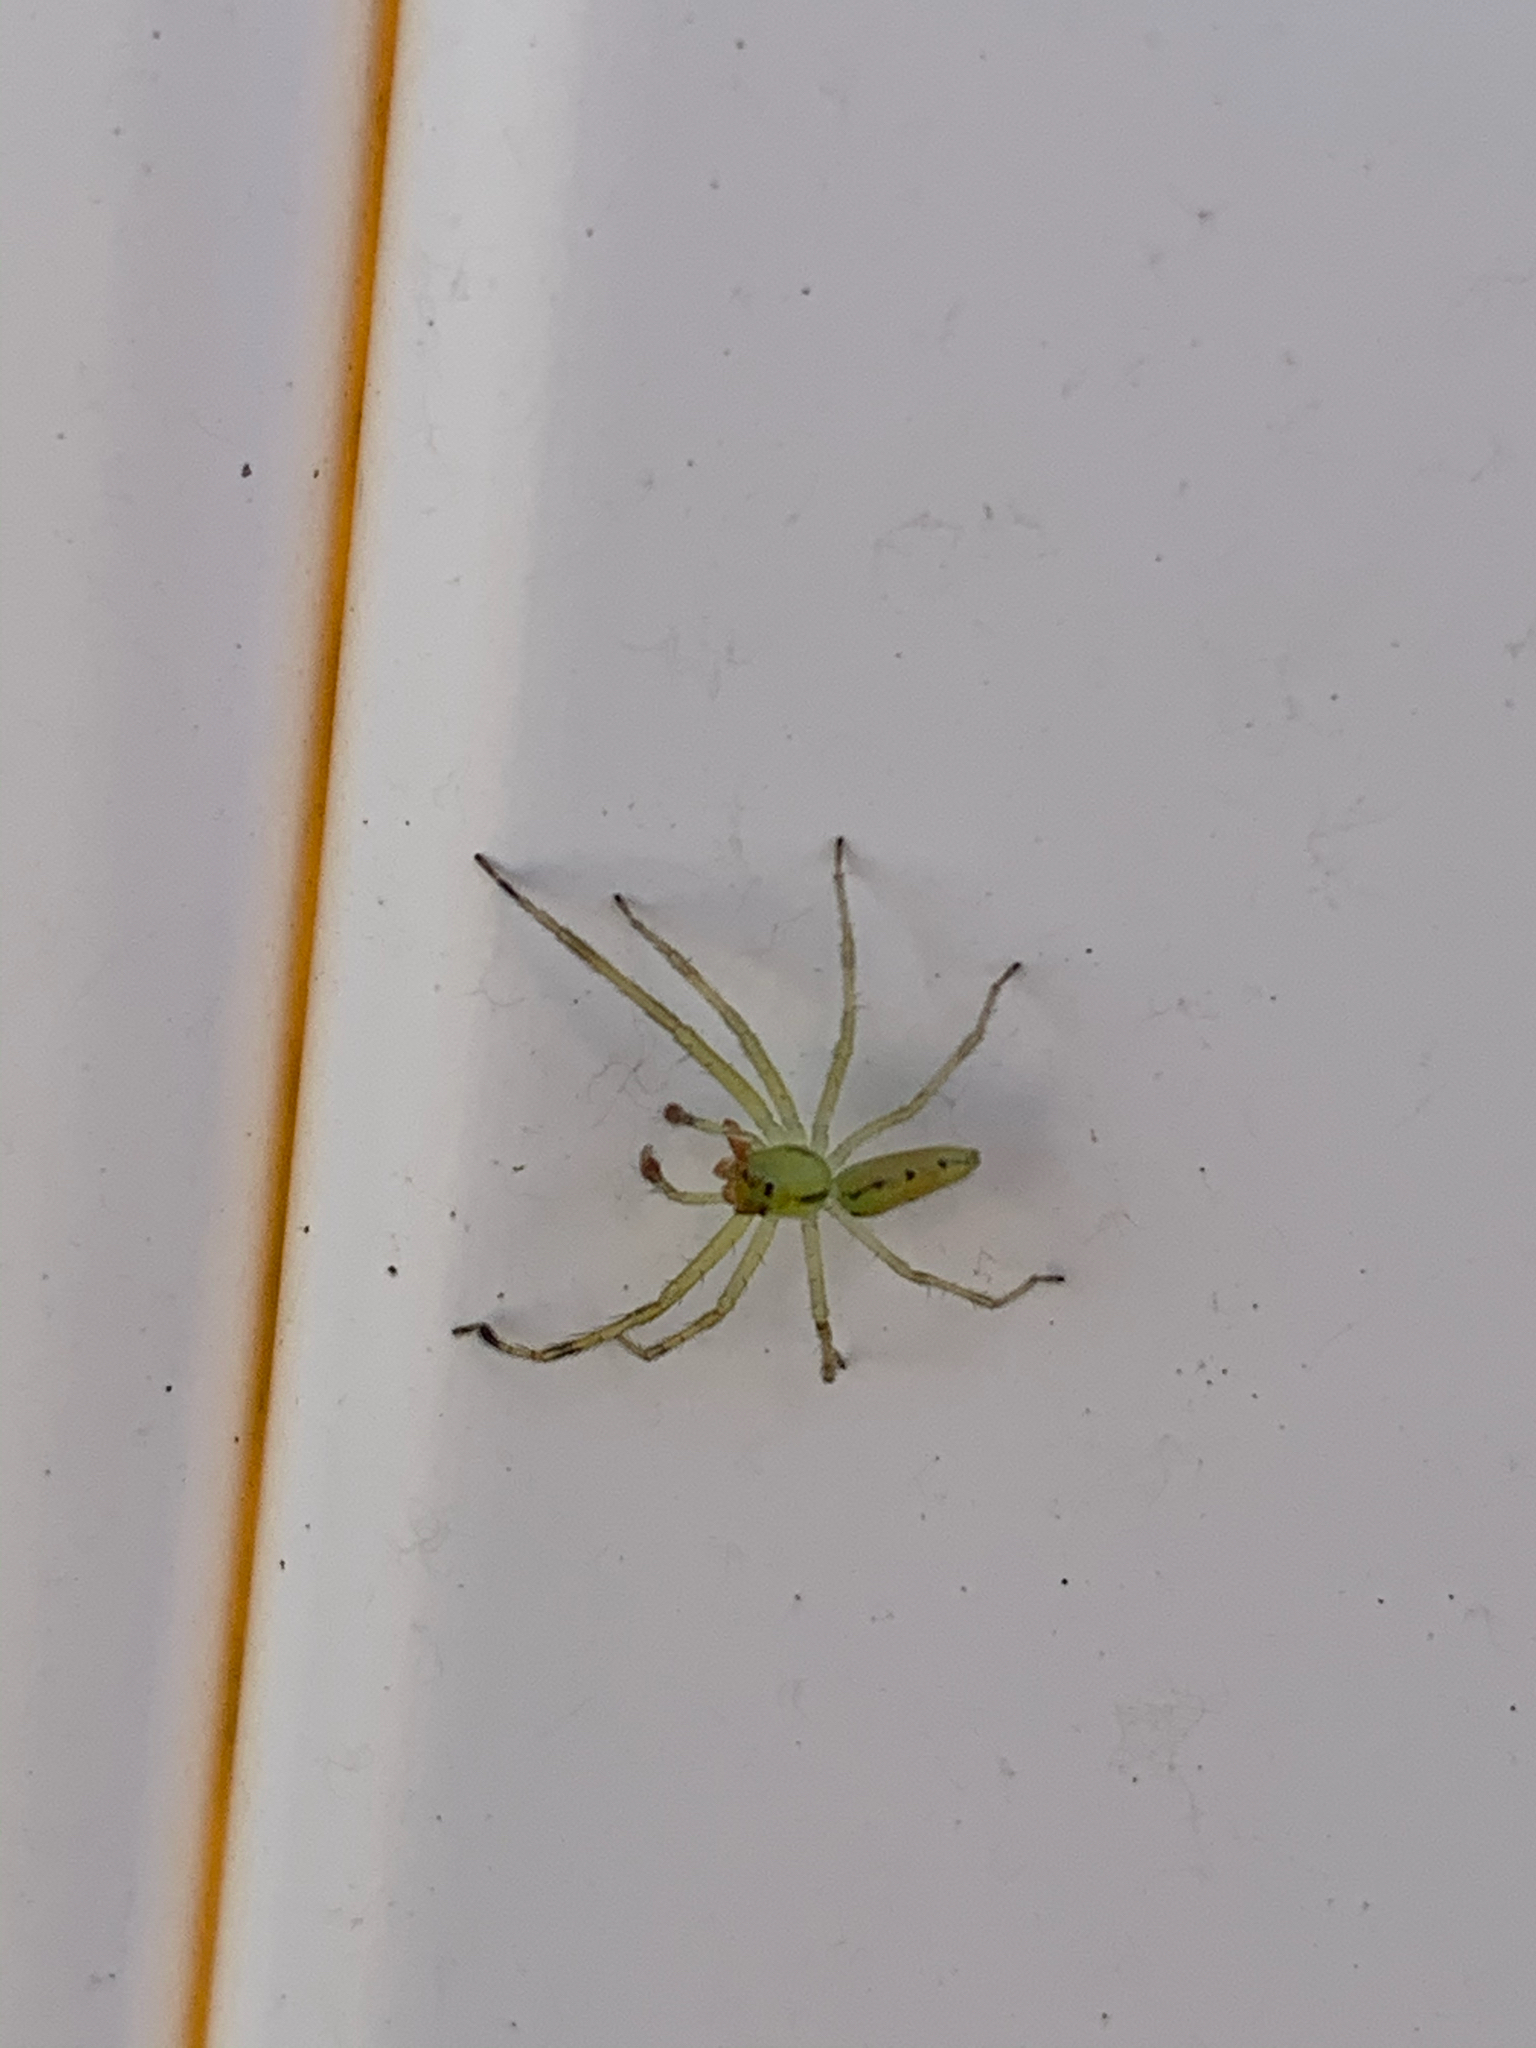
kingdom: Animalia
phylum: Arthropoda
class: Arachnida
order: Araneae
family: Salticidae
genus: Lyssomanes
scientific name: Lyssomanes viridis
